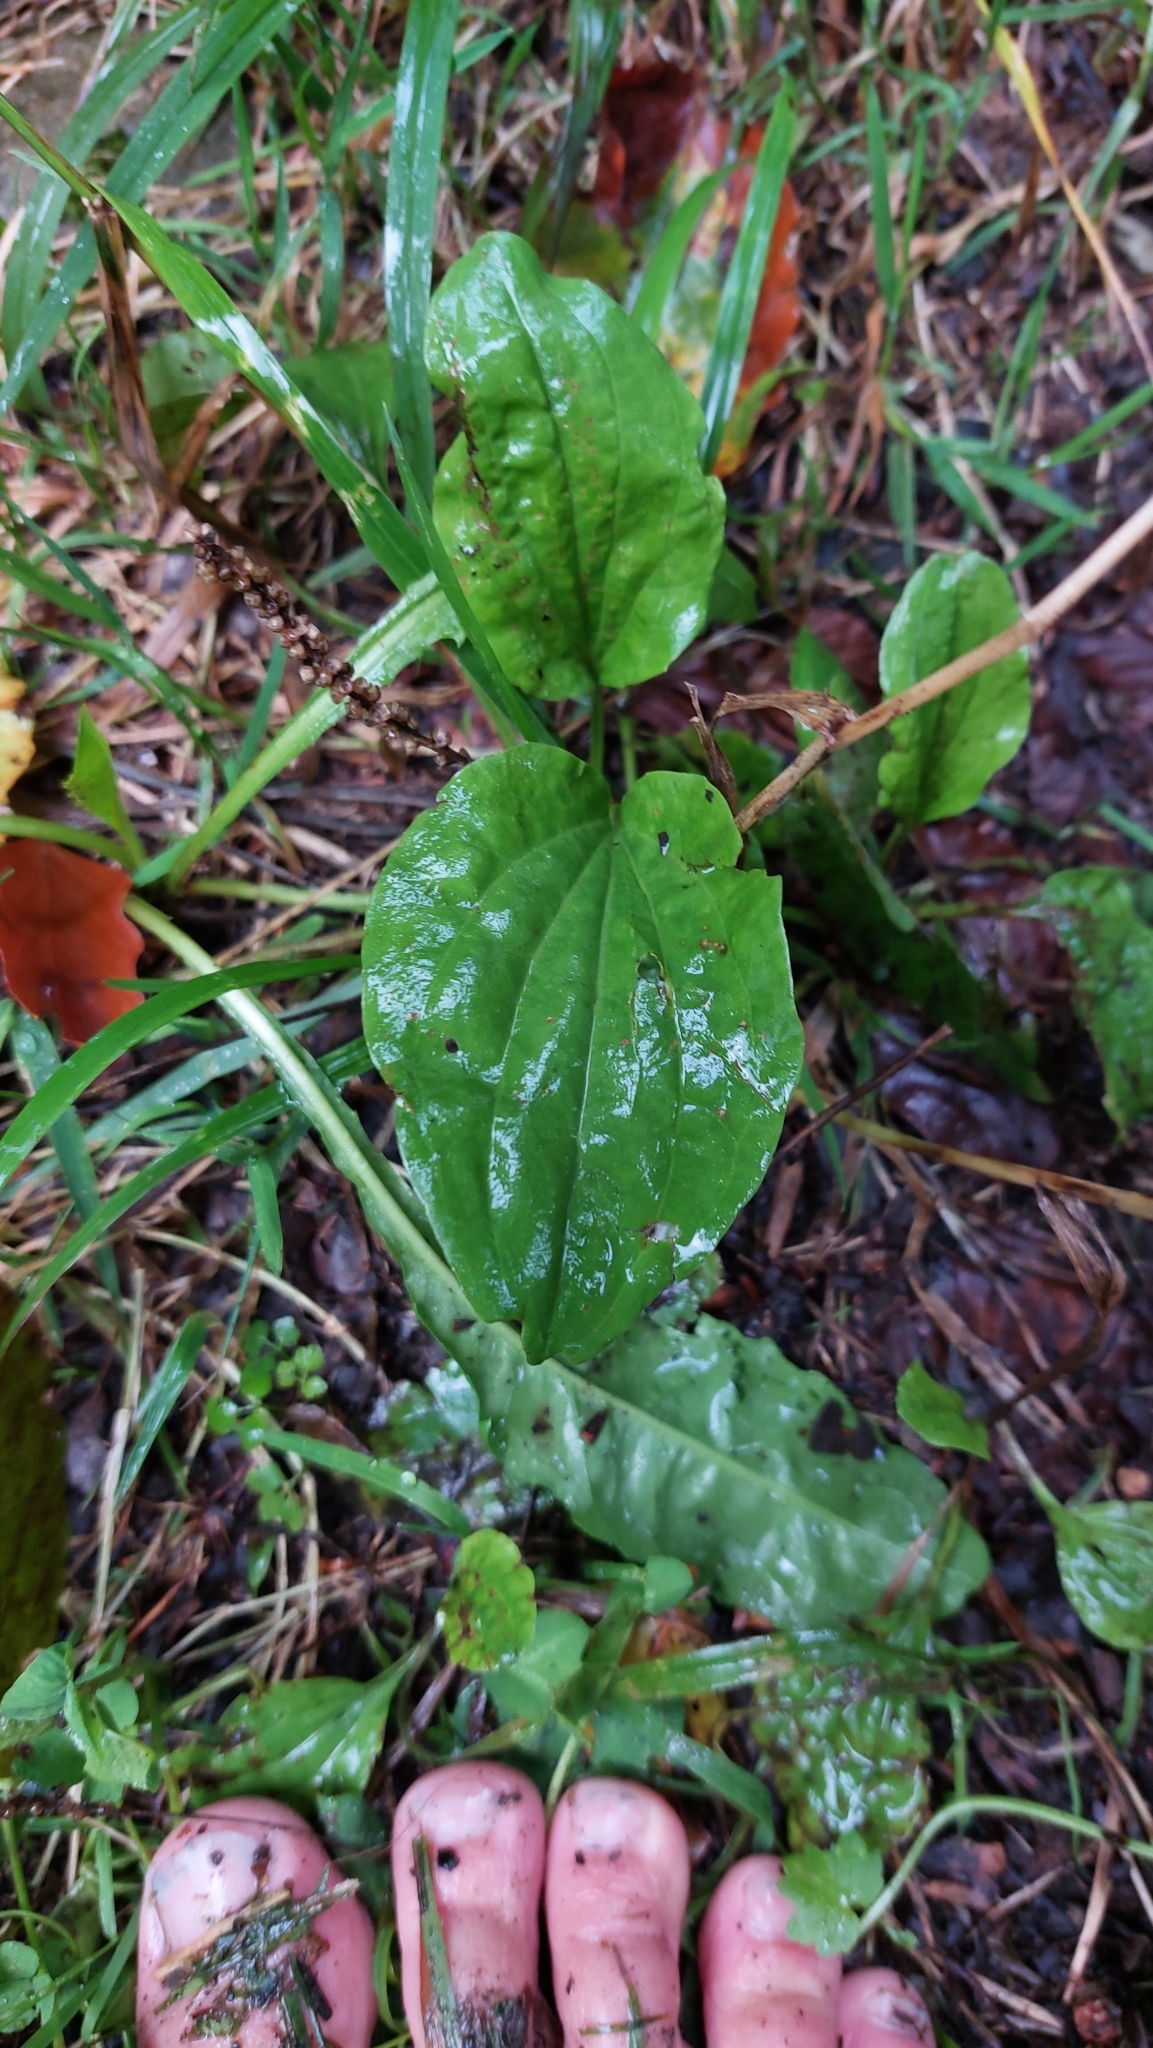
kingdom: Plantae
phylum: Tracheophyta
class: Magnoliopsida
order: Lamiales
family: Plantaginaceae
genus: Plantago
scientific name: Plantago major
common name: Common plantain
